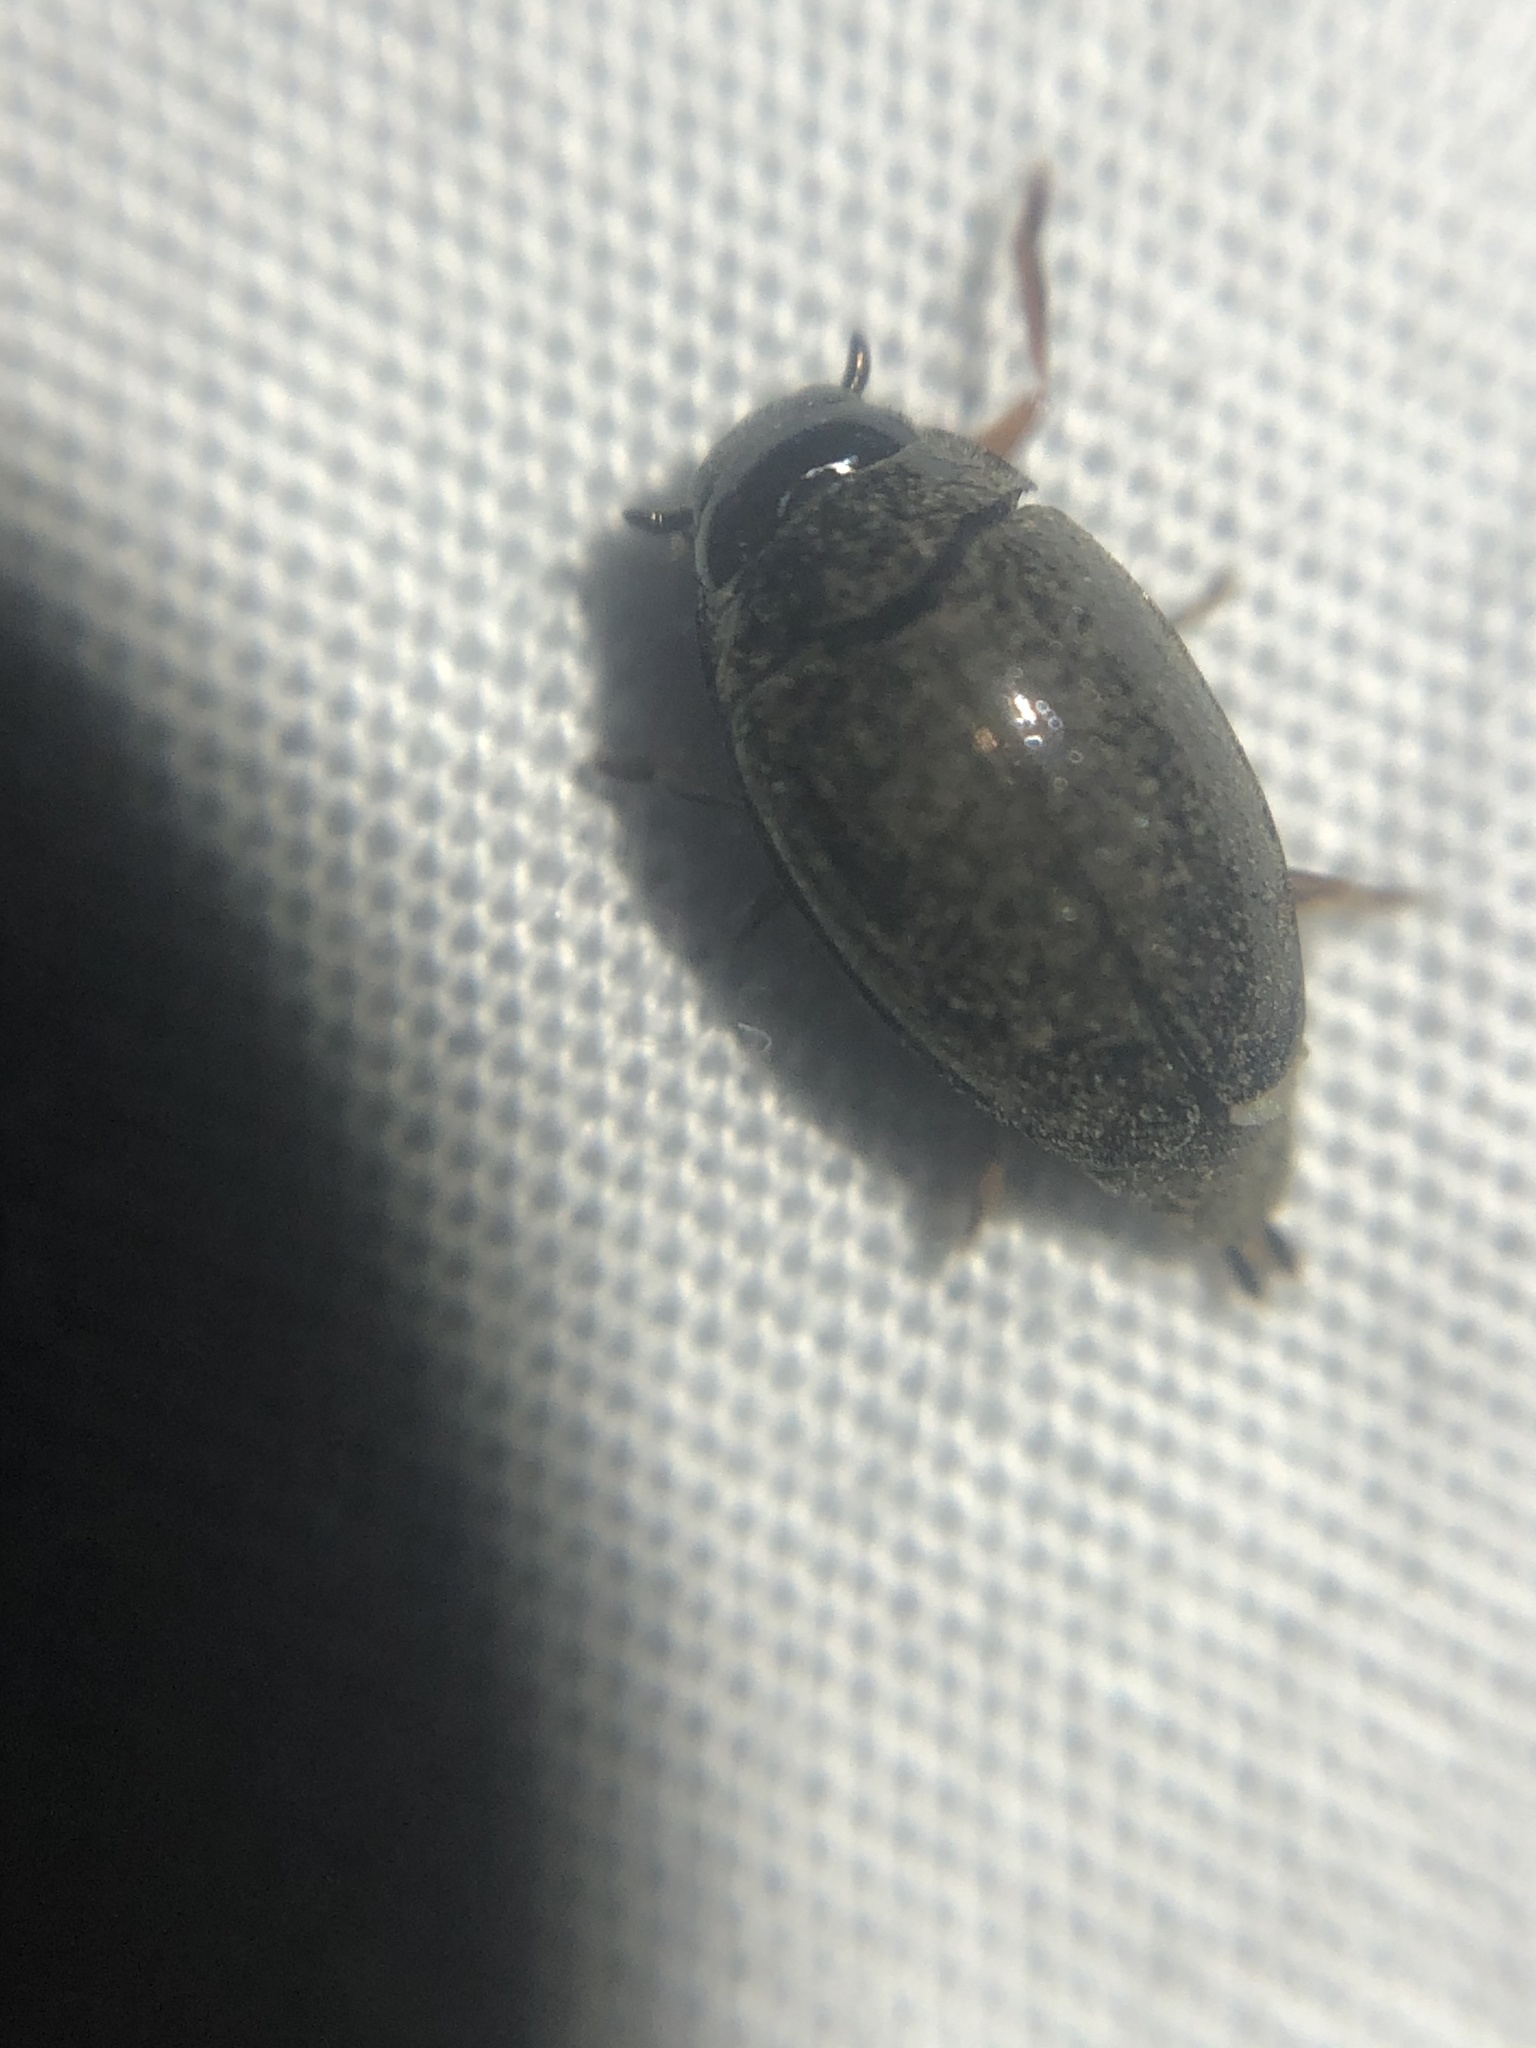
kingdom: Animalia
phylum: Arthropoda
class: Insecta
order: Coleoptera
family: Gyrinidae
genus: Gyrinus
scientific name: Gyrinus
